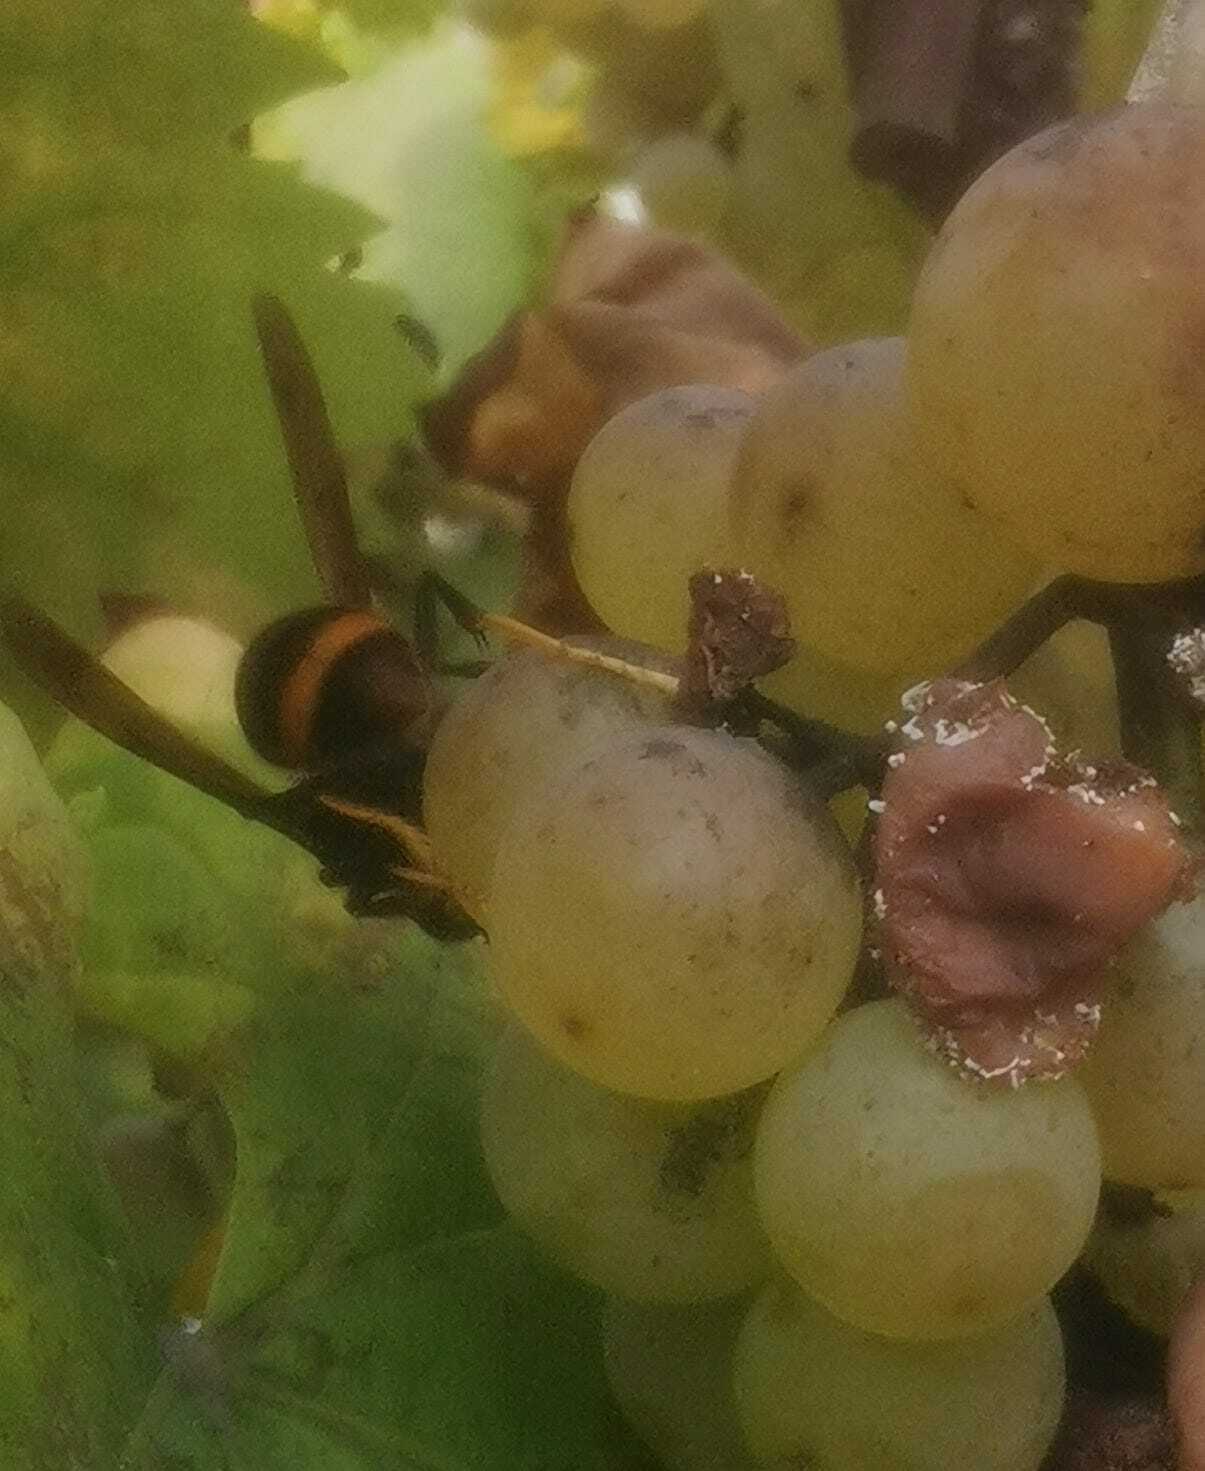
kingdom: Animalia
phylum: Arthropoda
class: Insecta
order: Hymenoptera
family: Vespidae
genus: Vespa
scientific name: Vespa velutina
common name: Asian hornet
